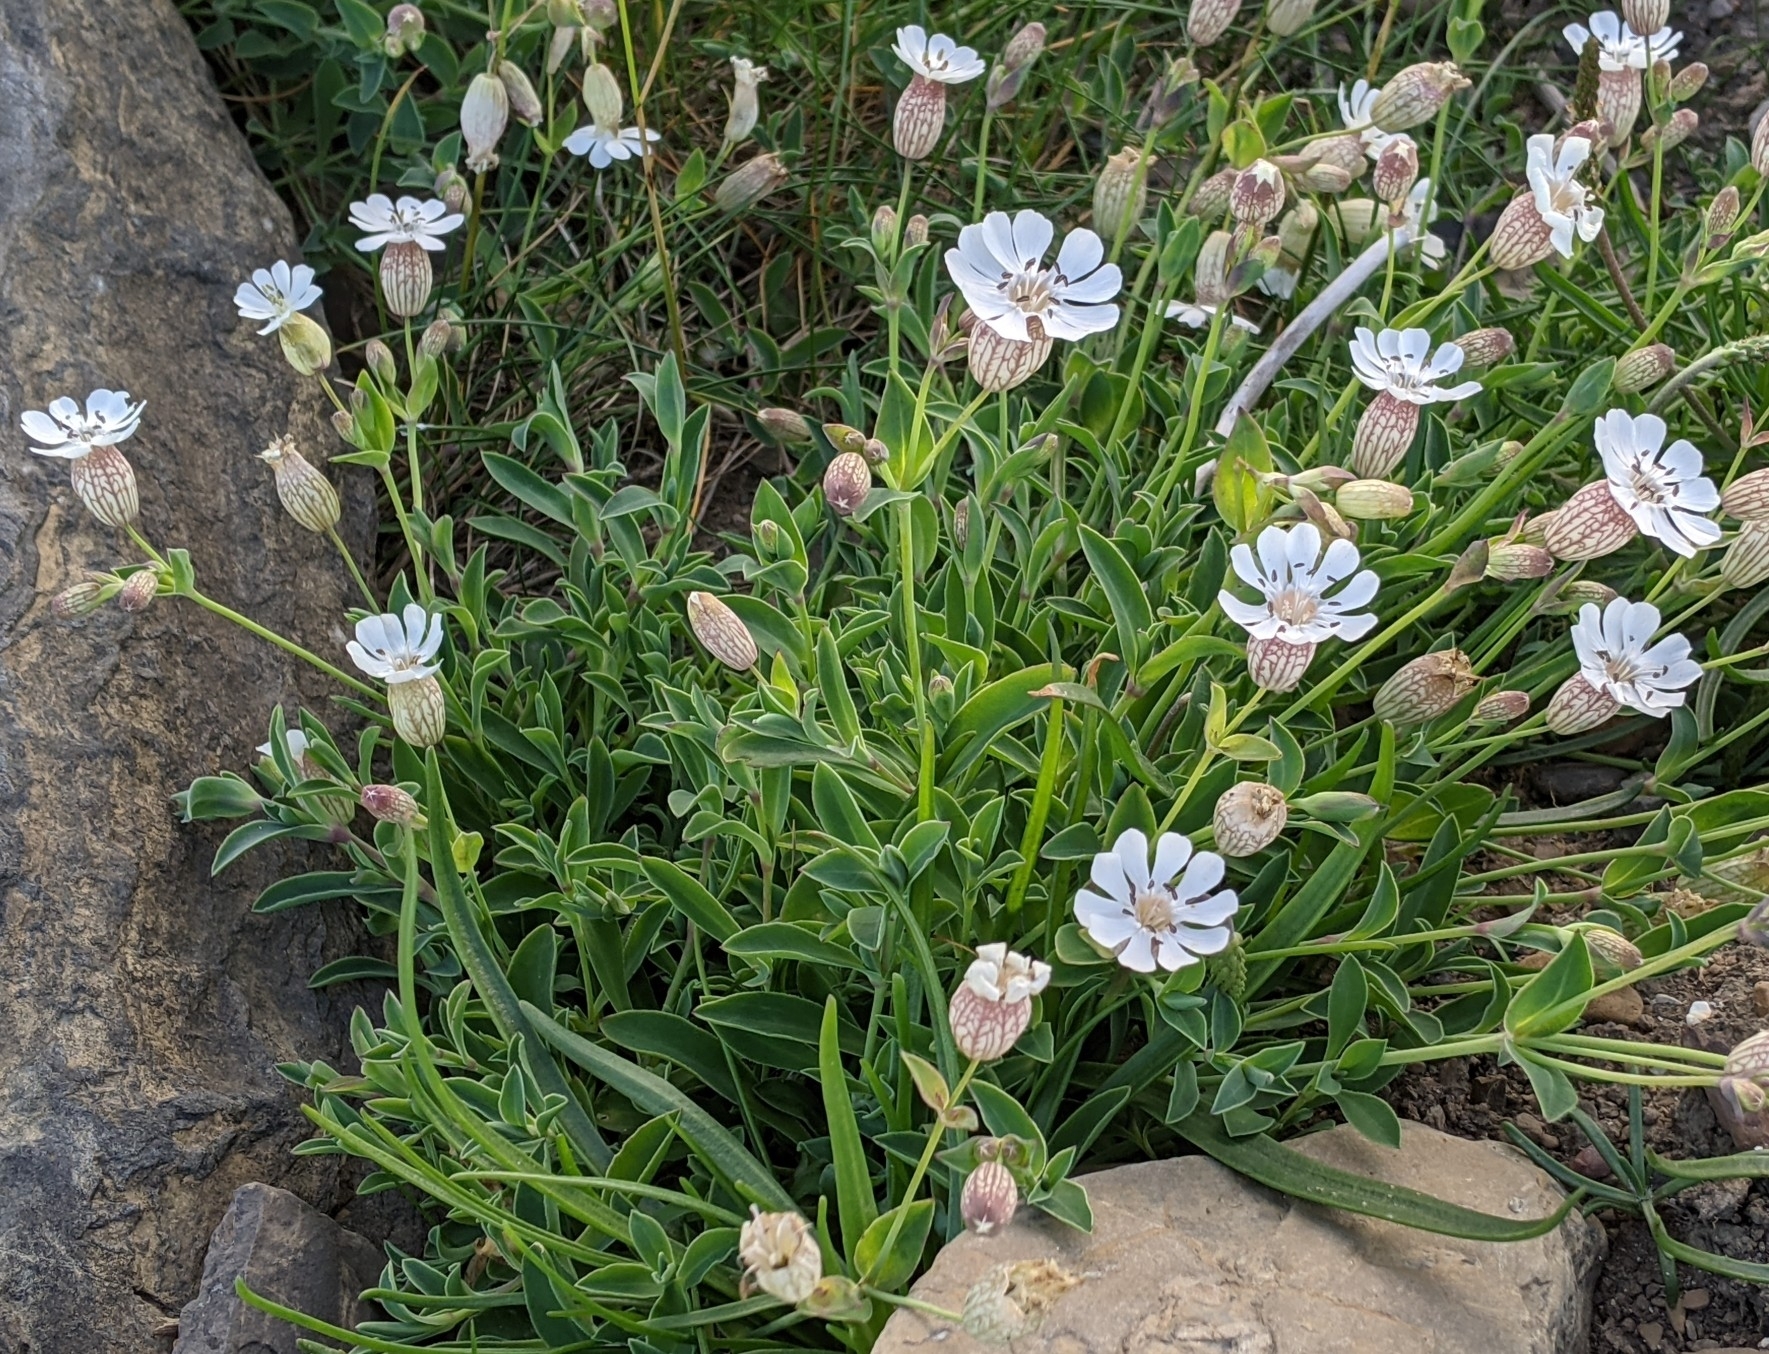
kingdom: Plantae
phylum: Tracheophyta
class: Magnoliopsida
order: Caryophyllales
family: Caryophyllaceae
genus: Silene
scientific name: Silene uniflora
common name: Sea campion
